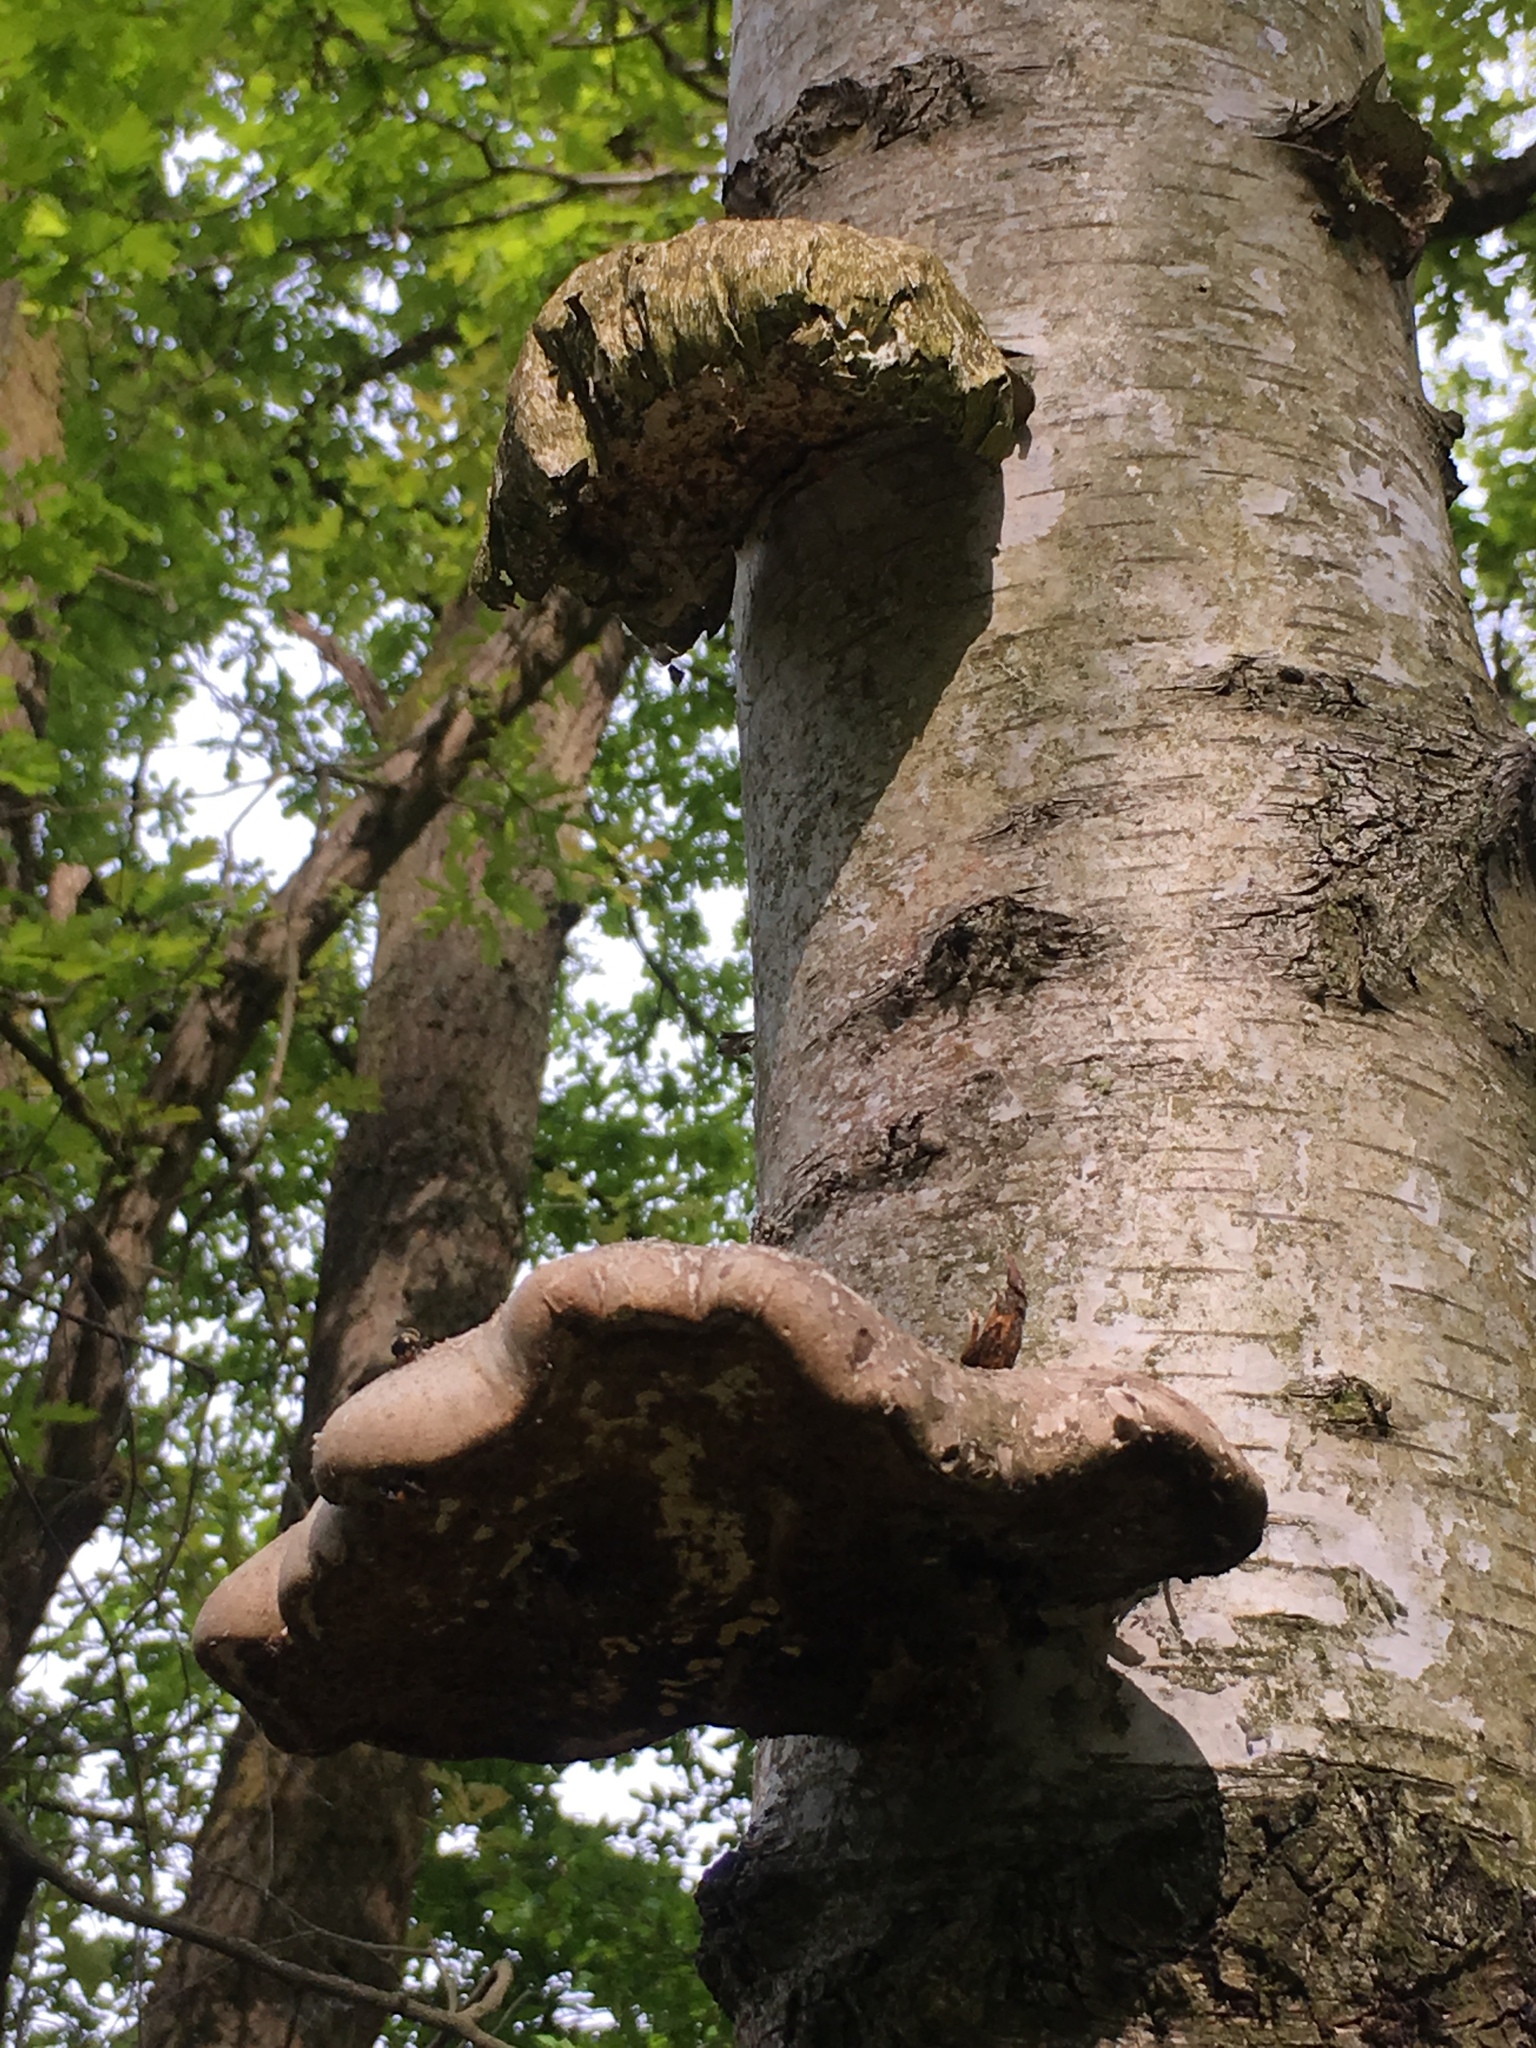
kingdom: Fungi
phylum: Basidiomycota
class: Agaricomycetes
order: Polyporales
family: Fomitopsidaceae
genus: Fomitopsis
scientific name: Fomitopsis betulina
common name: Birch polypore
